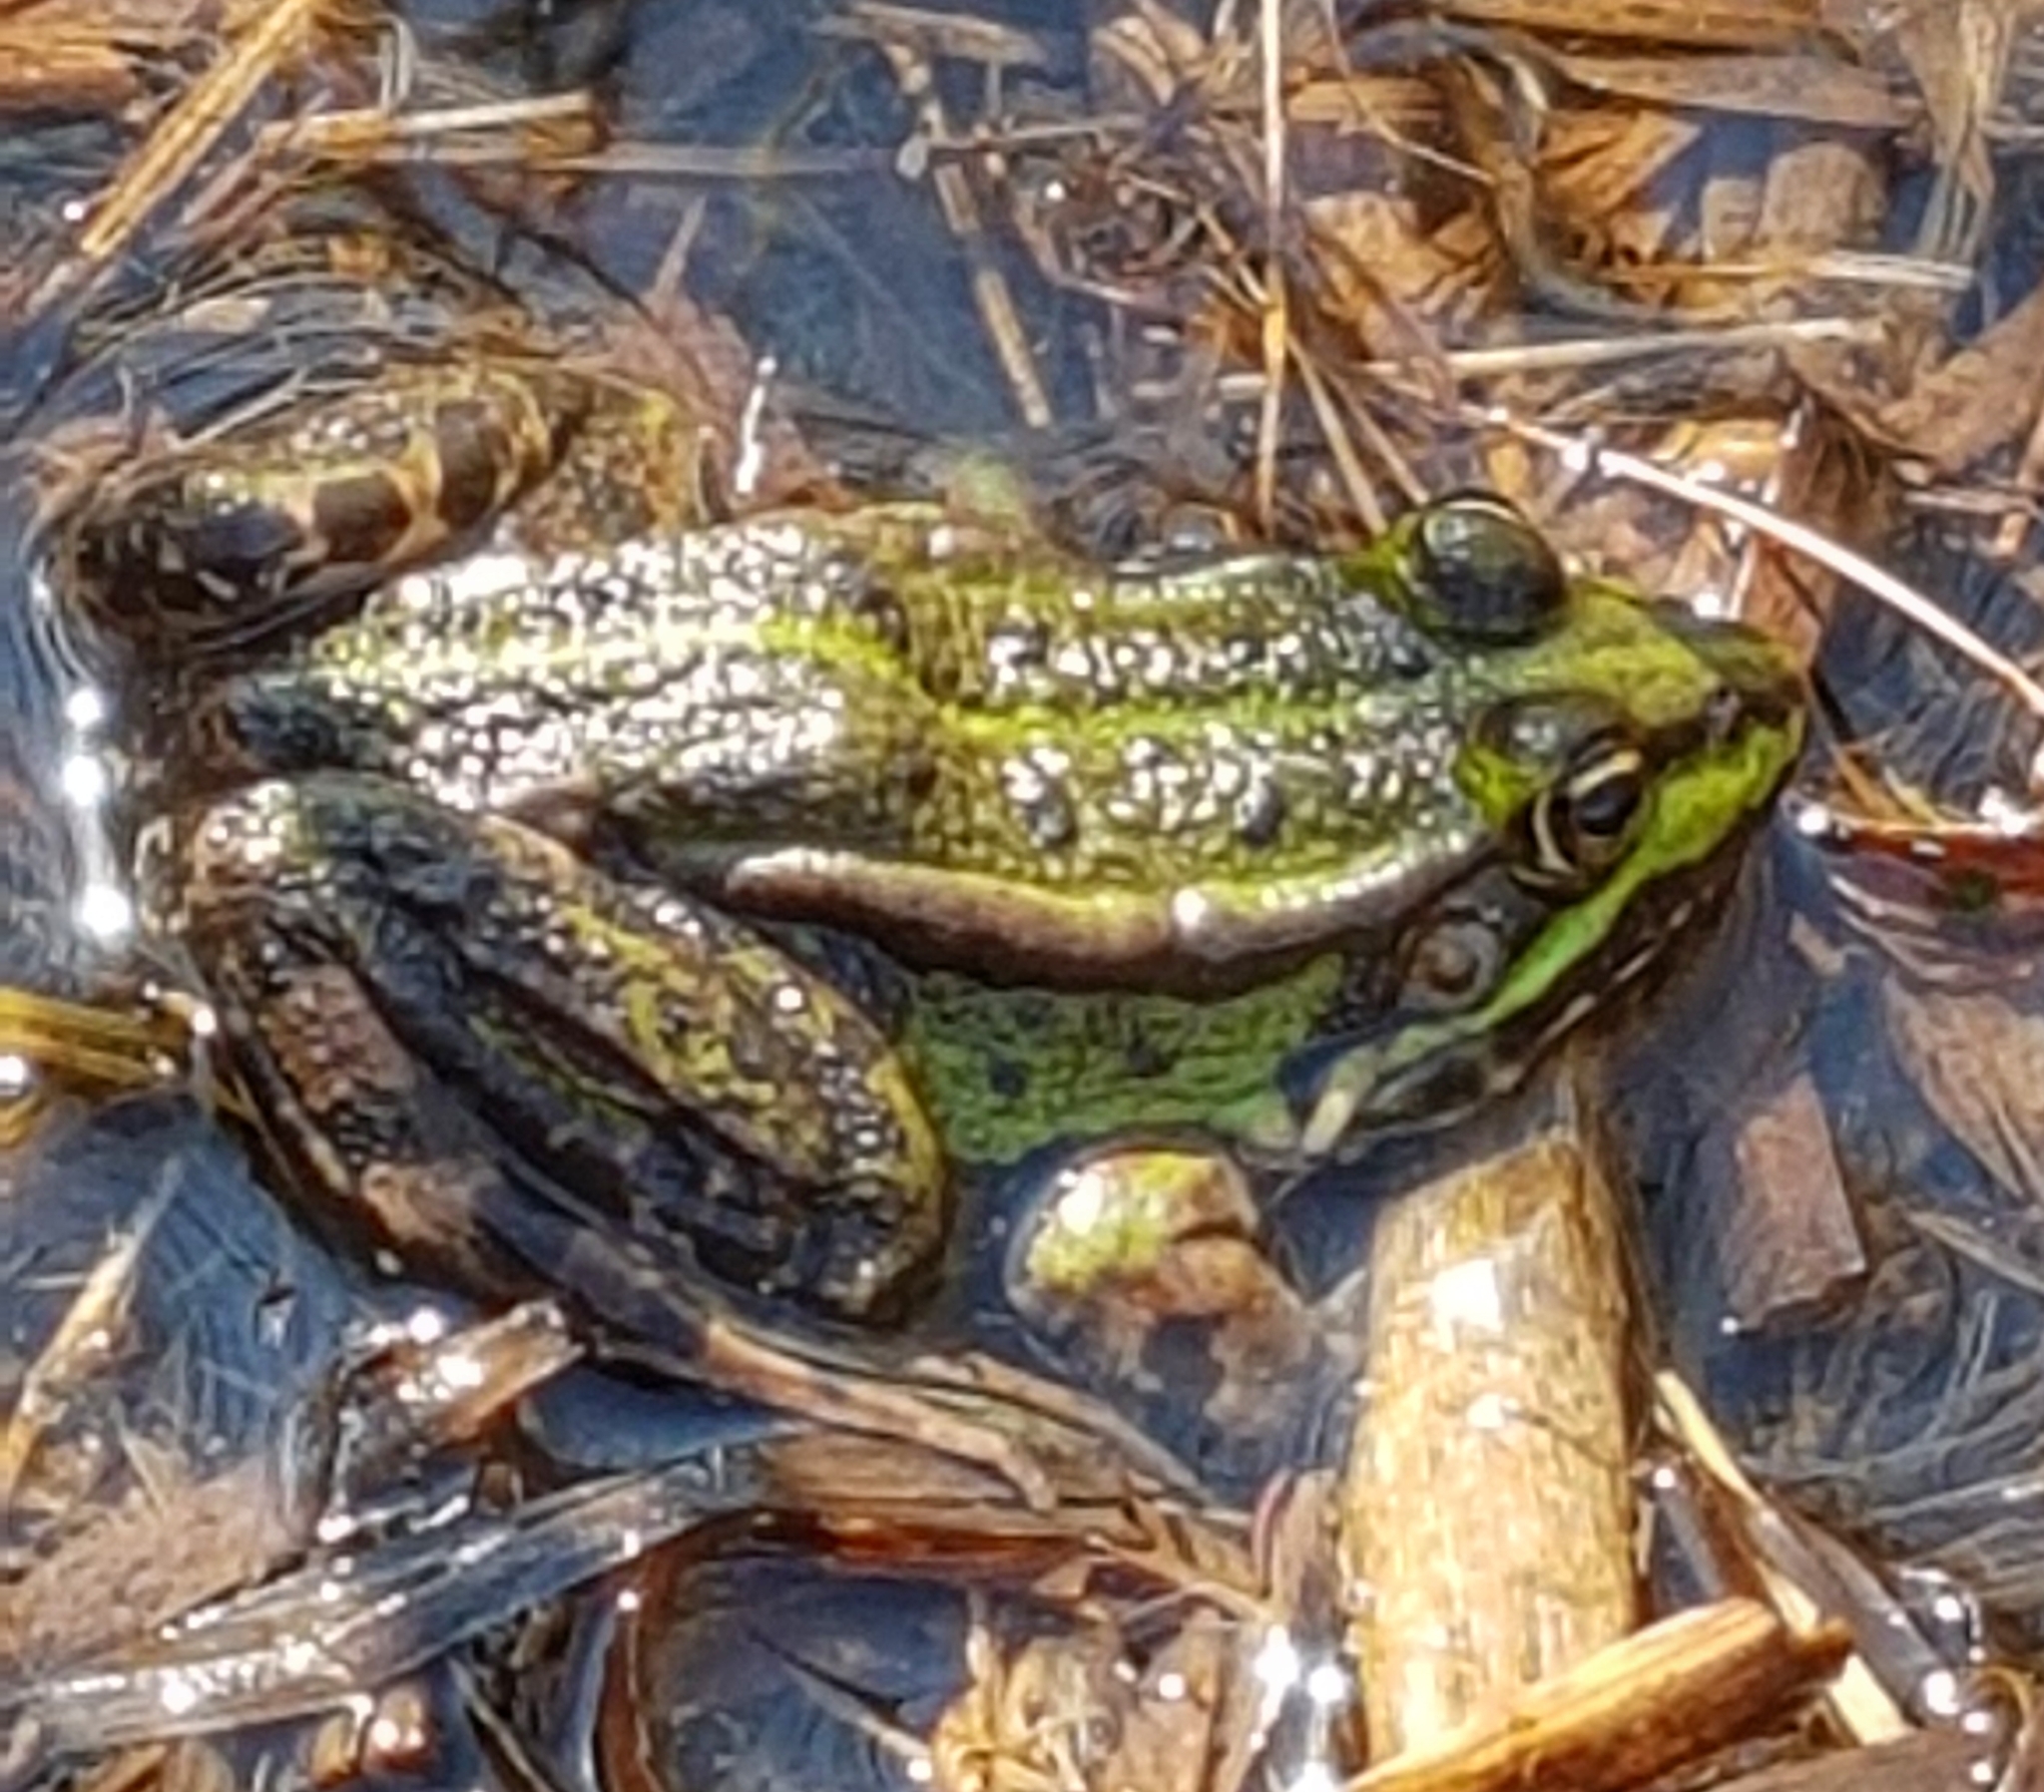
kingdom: Animalia
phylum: Chordata
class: Amphibia
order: Anura
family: Ranidae
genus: Pelophylax
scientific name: Pelophylax lessonae
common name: Pool frog
